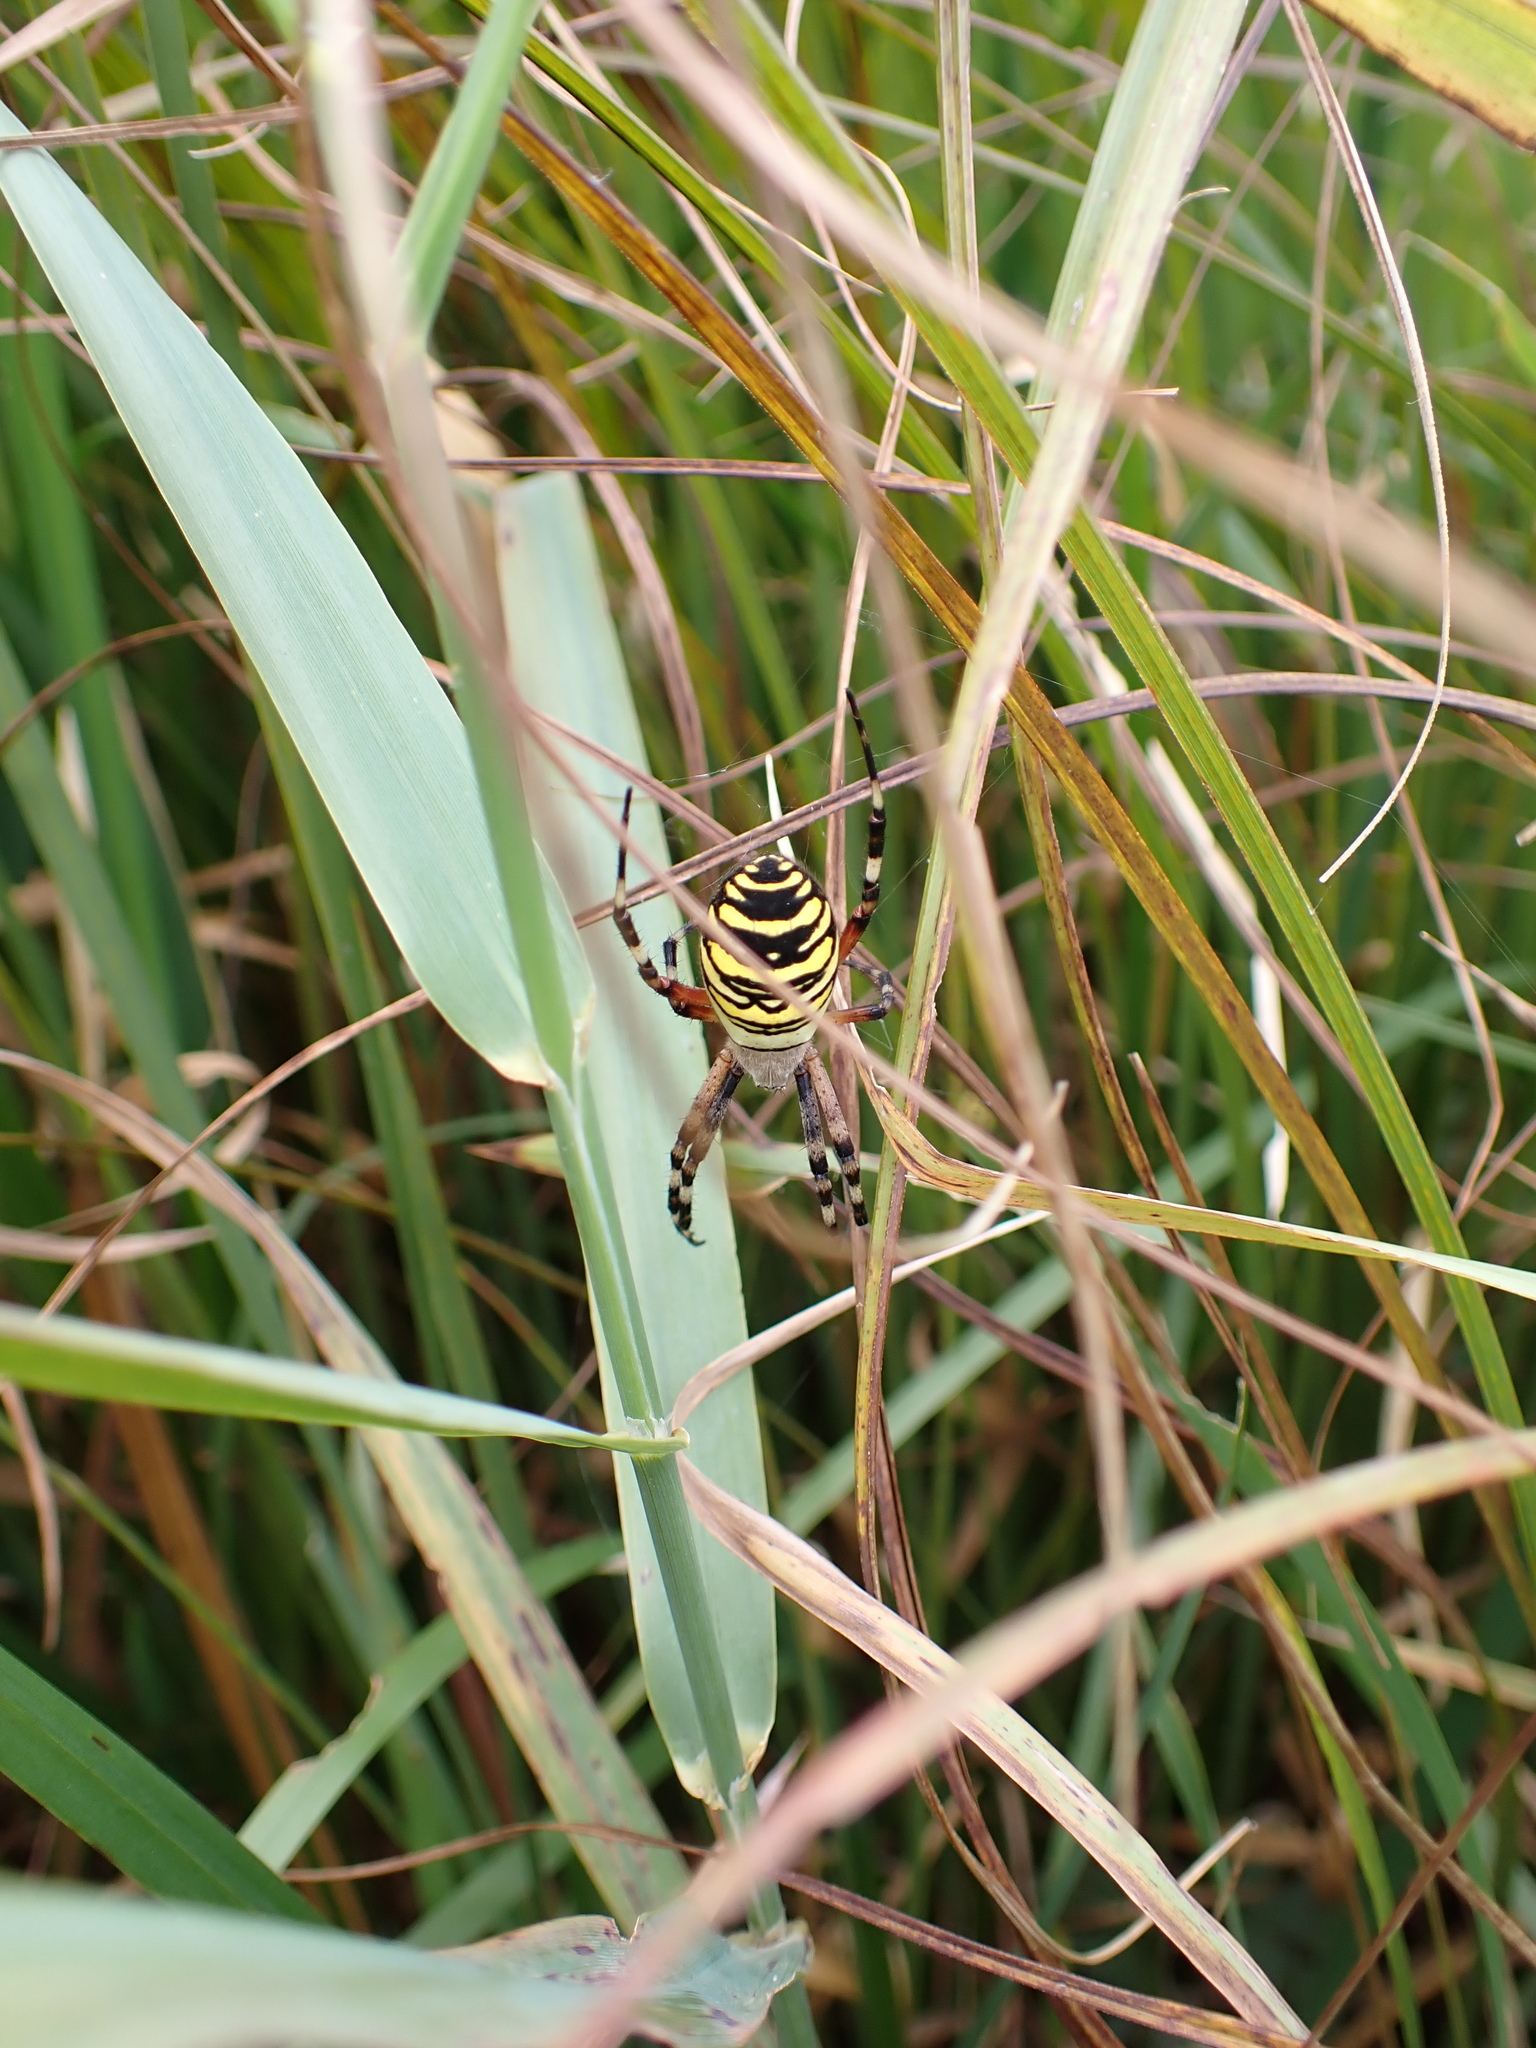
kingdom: Animalia
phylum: Arthropoda
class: Arachnida
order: Araneae
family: Araneidae
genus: Argiope
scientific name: Argiope bruennichi
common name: Wasp spider
